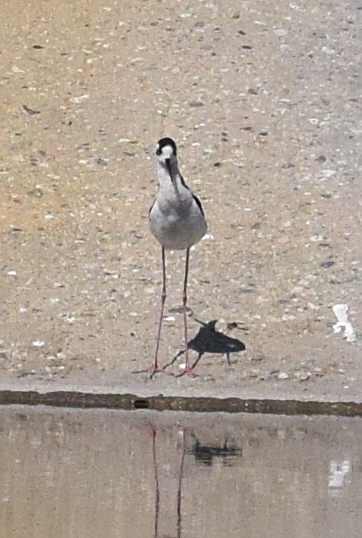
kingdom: Animalia
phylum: Chordata
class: Aves
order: Charadriiformes
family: Recurvirostridae
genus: Himantopus
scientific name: Himantopus mexicanus
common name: Black-necked stilt
